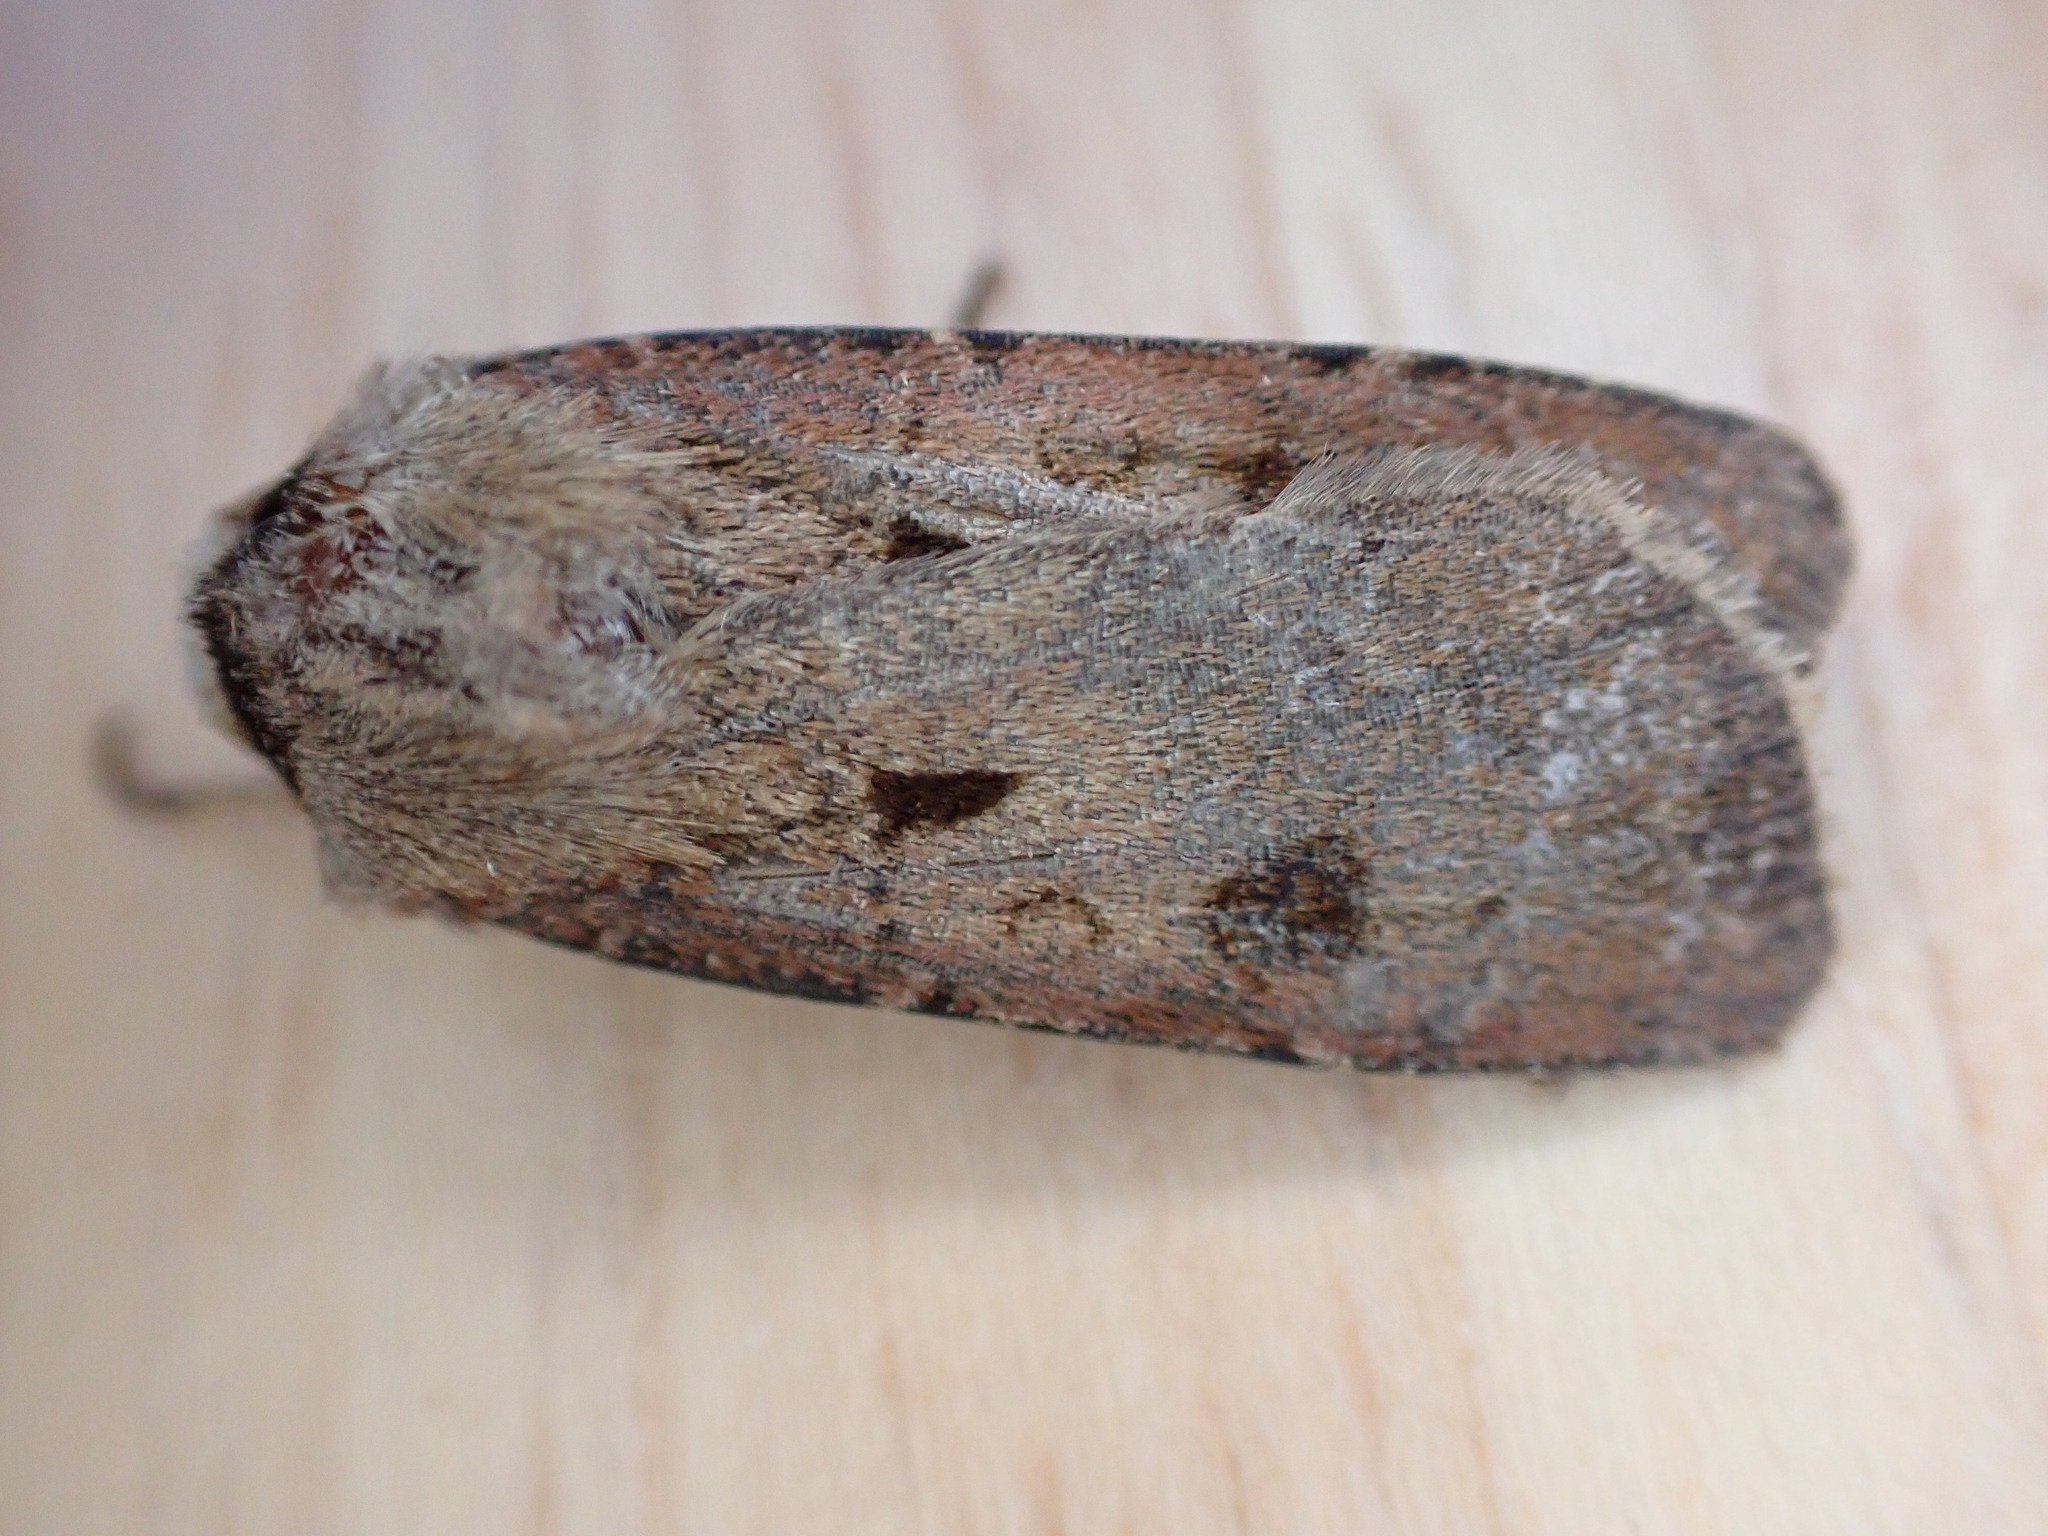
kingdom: Animalia
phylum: Arthropoda
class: Insecta
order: Lepidoptera
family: Noctuidae
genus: Agrotis
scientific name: Agrotis exclamationis
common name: Heart and dart
